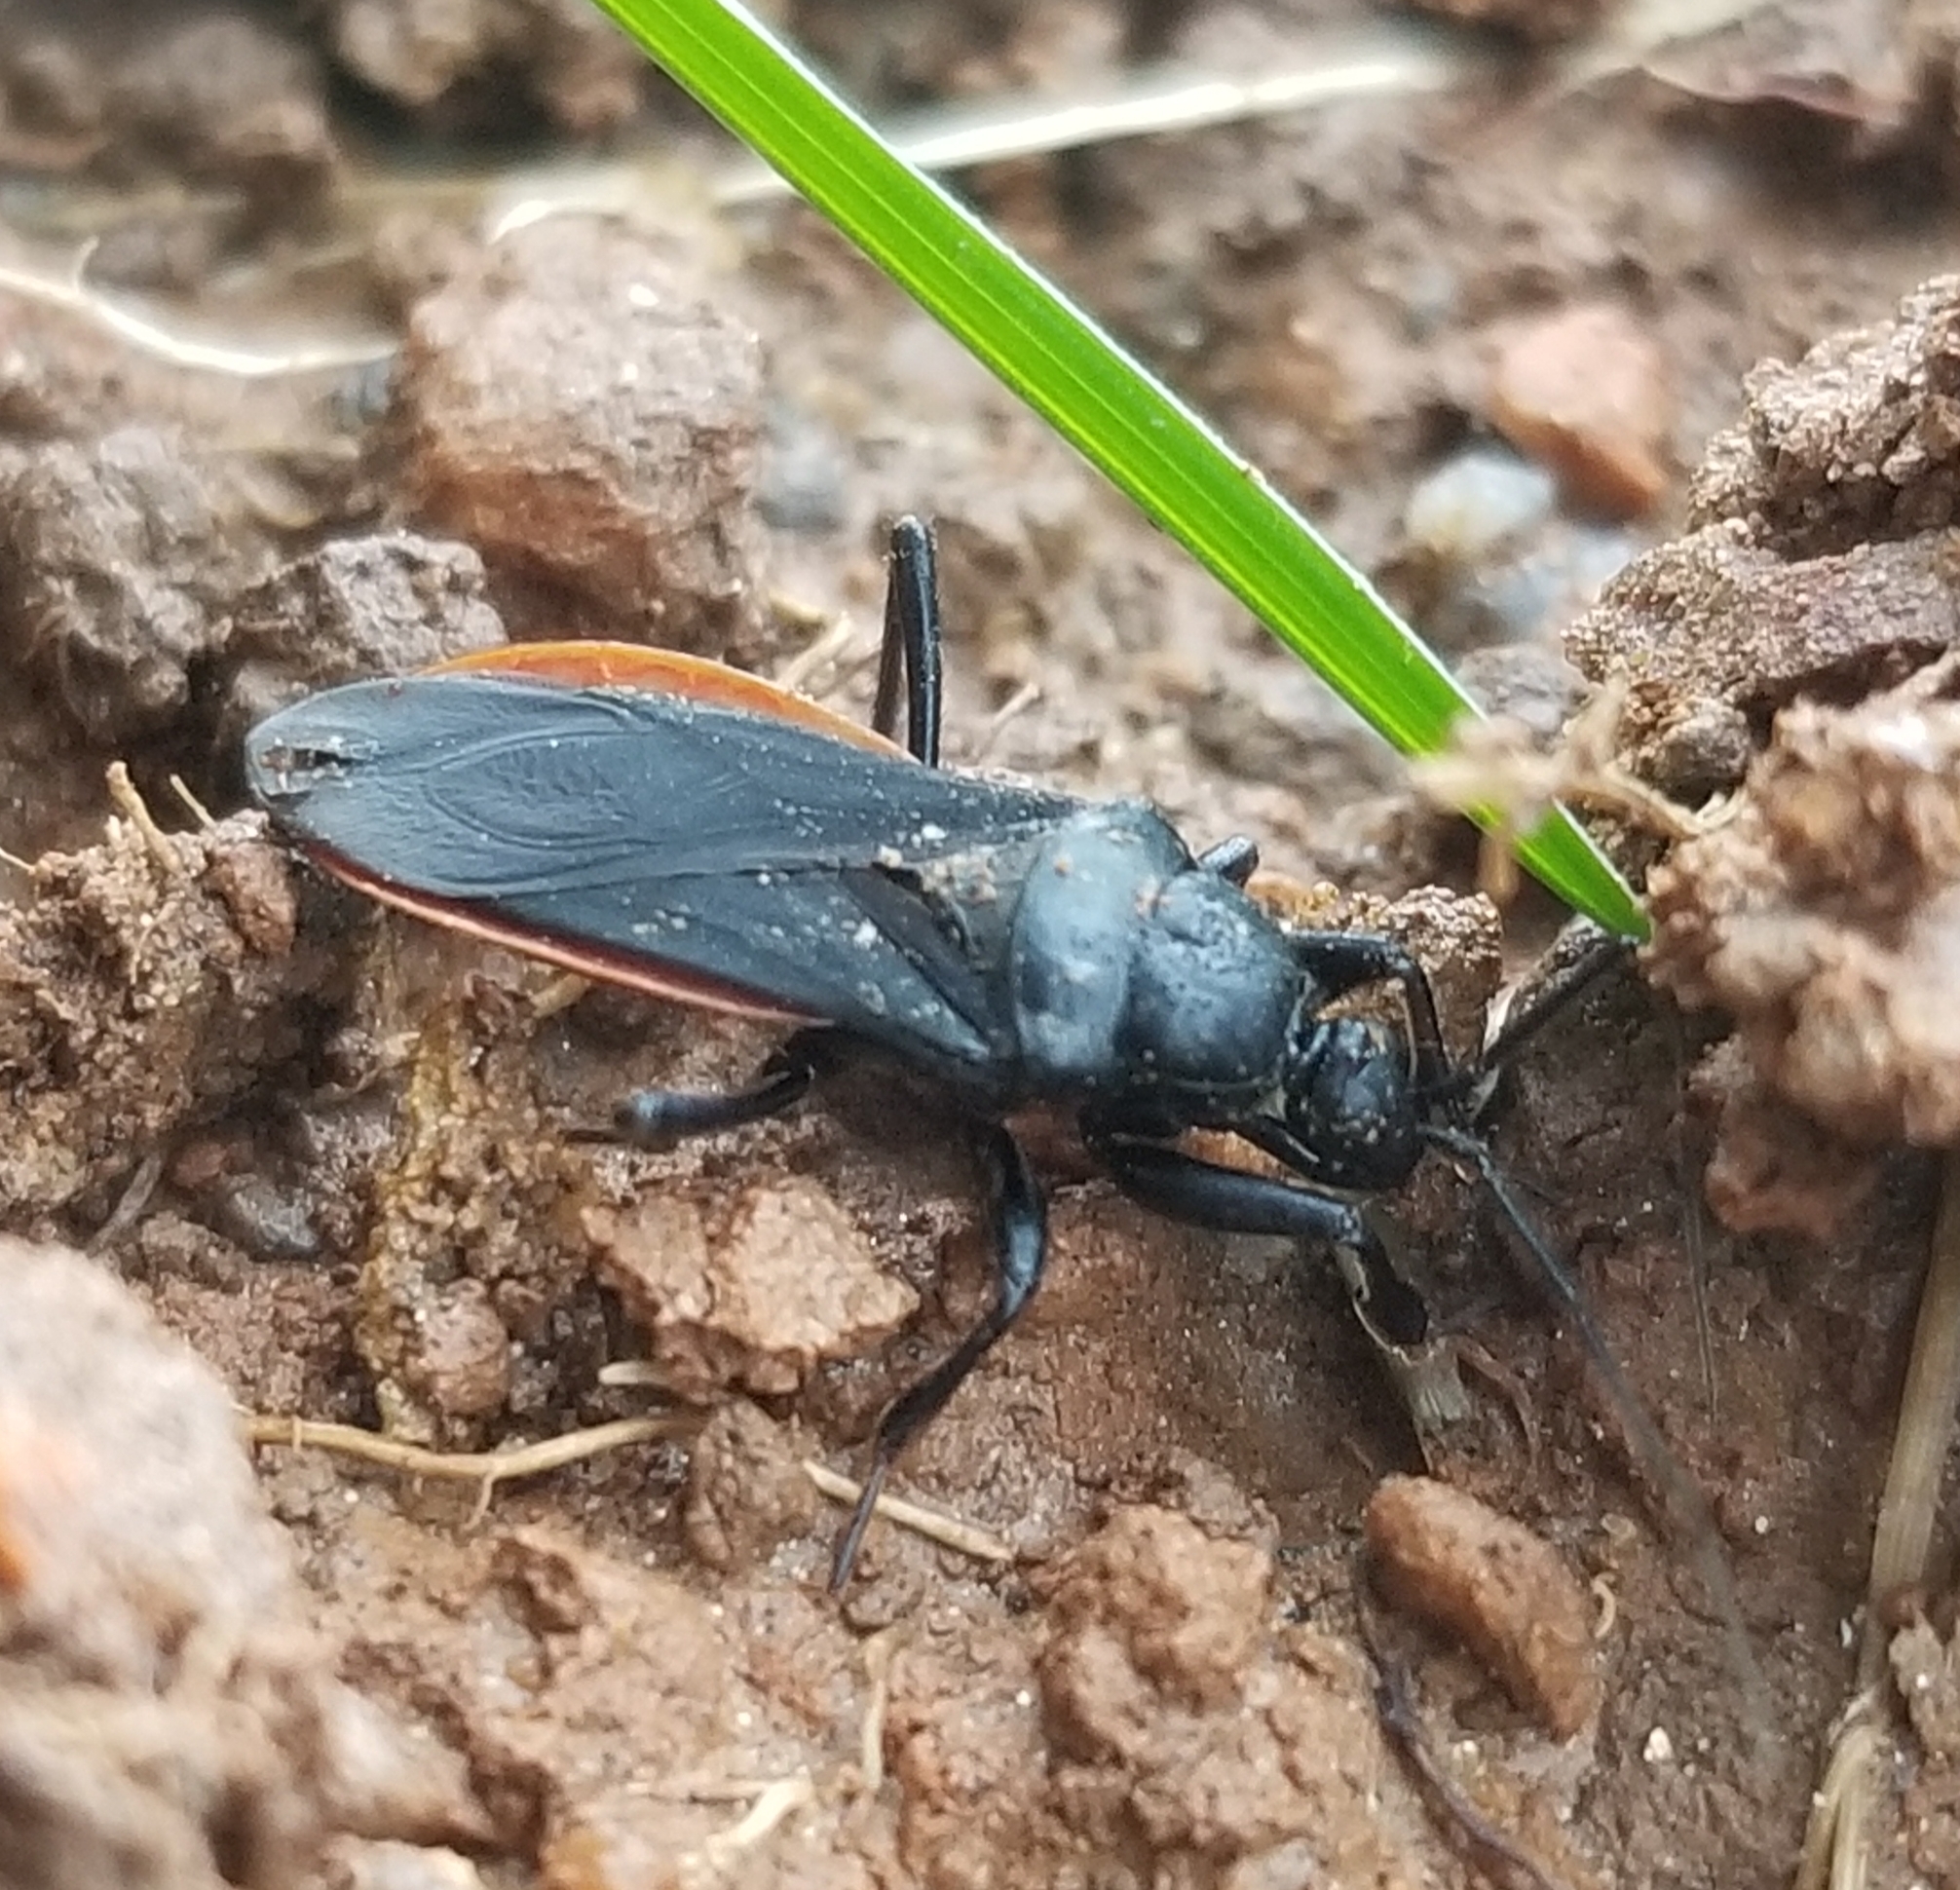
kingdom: Animalia
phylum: Arthropoda
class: Insecta
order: Hemiptera
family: Reduviidae
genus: Melanolestes
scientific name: Melanolestes picipes
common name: Assassin bug
